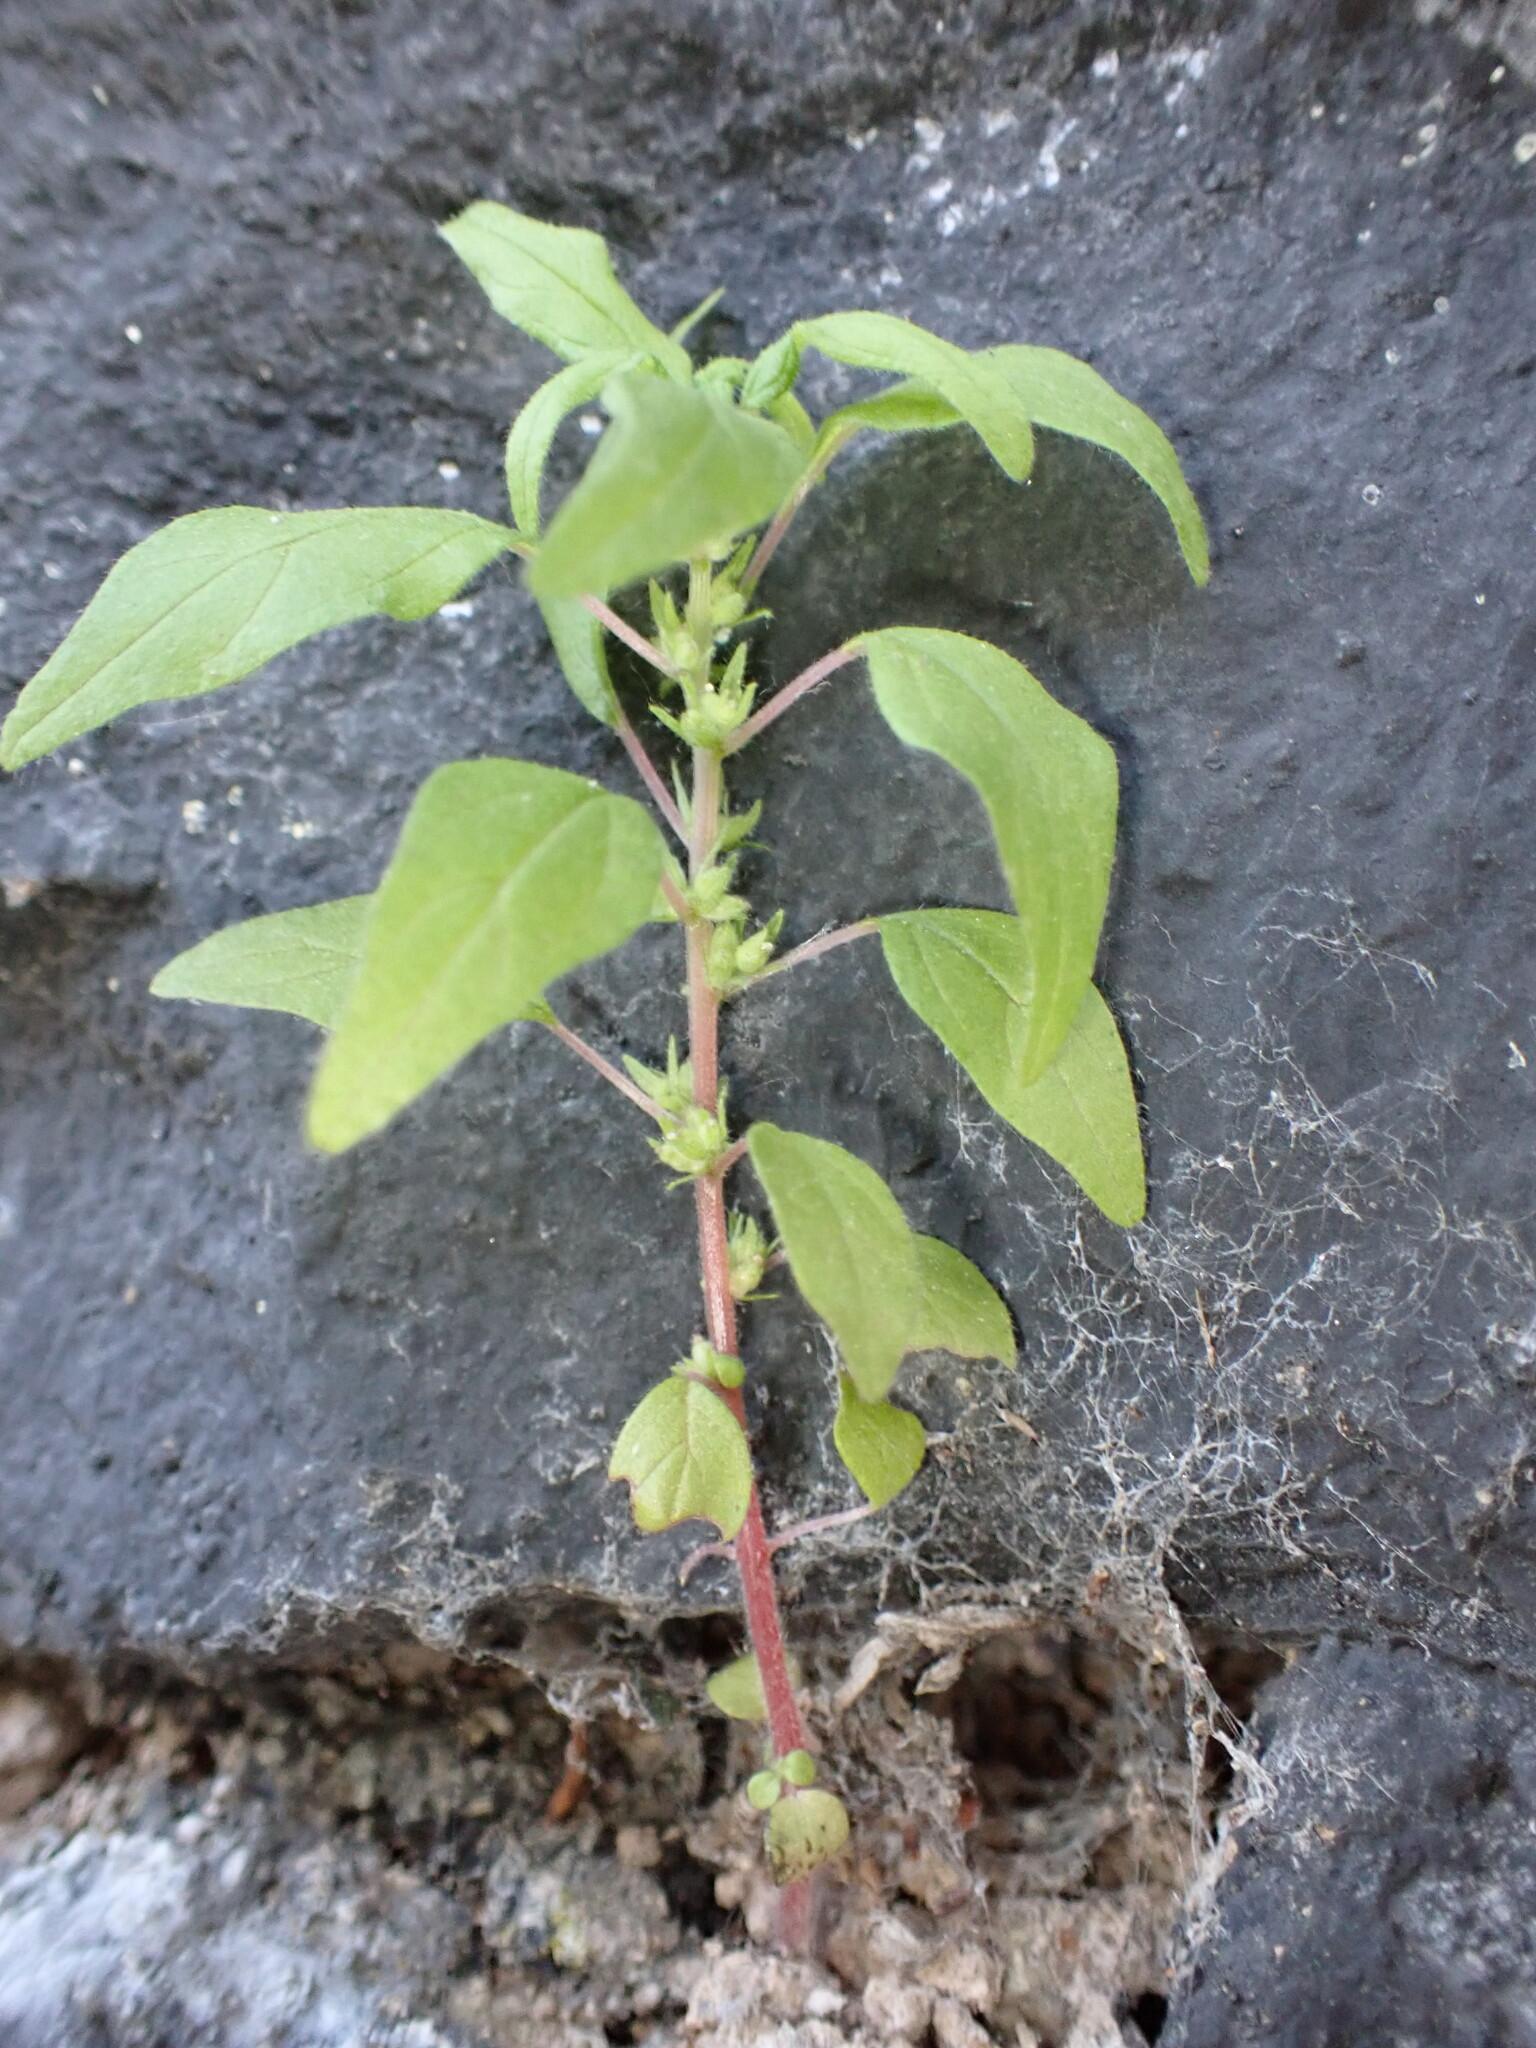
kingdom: Plantae
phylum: Tracheophyta
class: Magnoliopsida
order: Rosales
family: Urticaceae
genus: Parietaria
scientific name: Parietaria pensylvanica
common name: Pennsylvania pellitory
